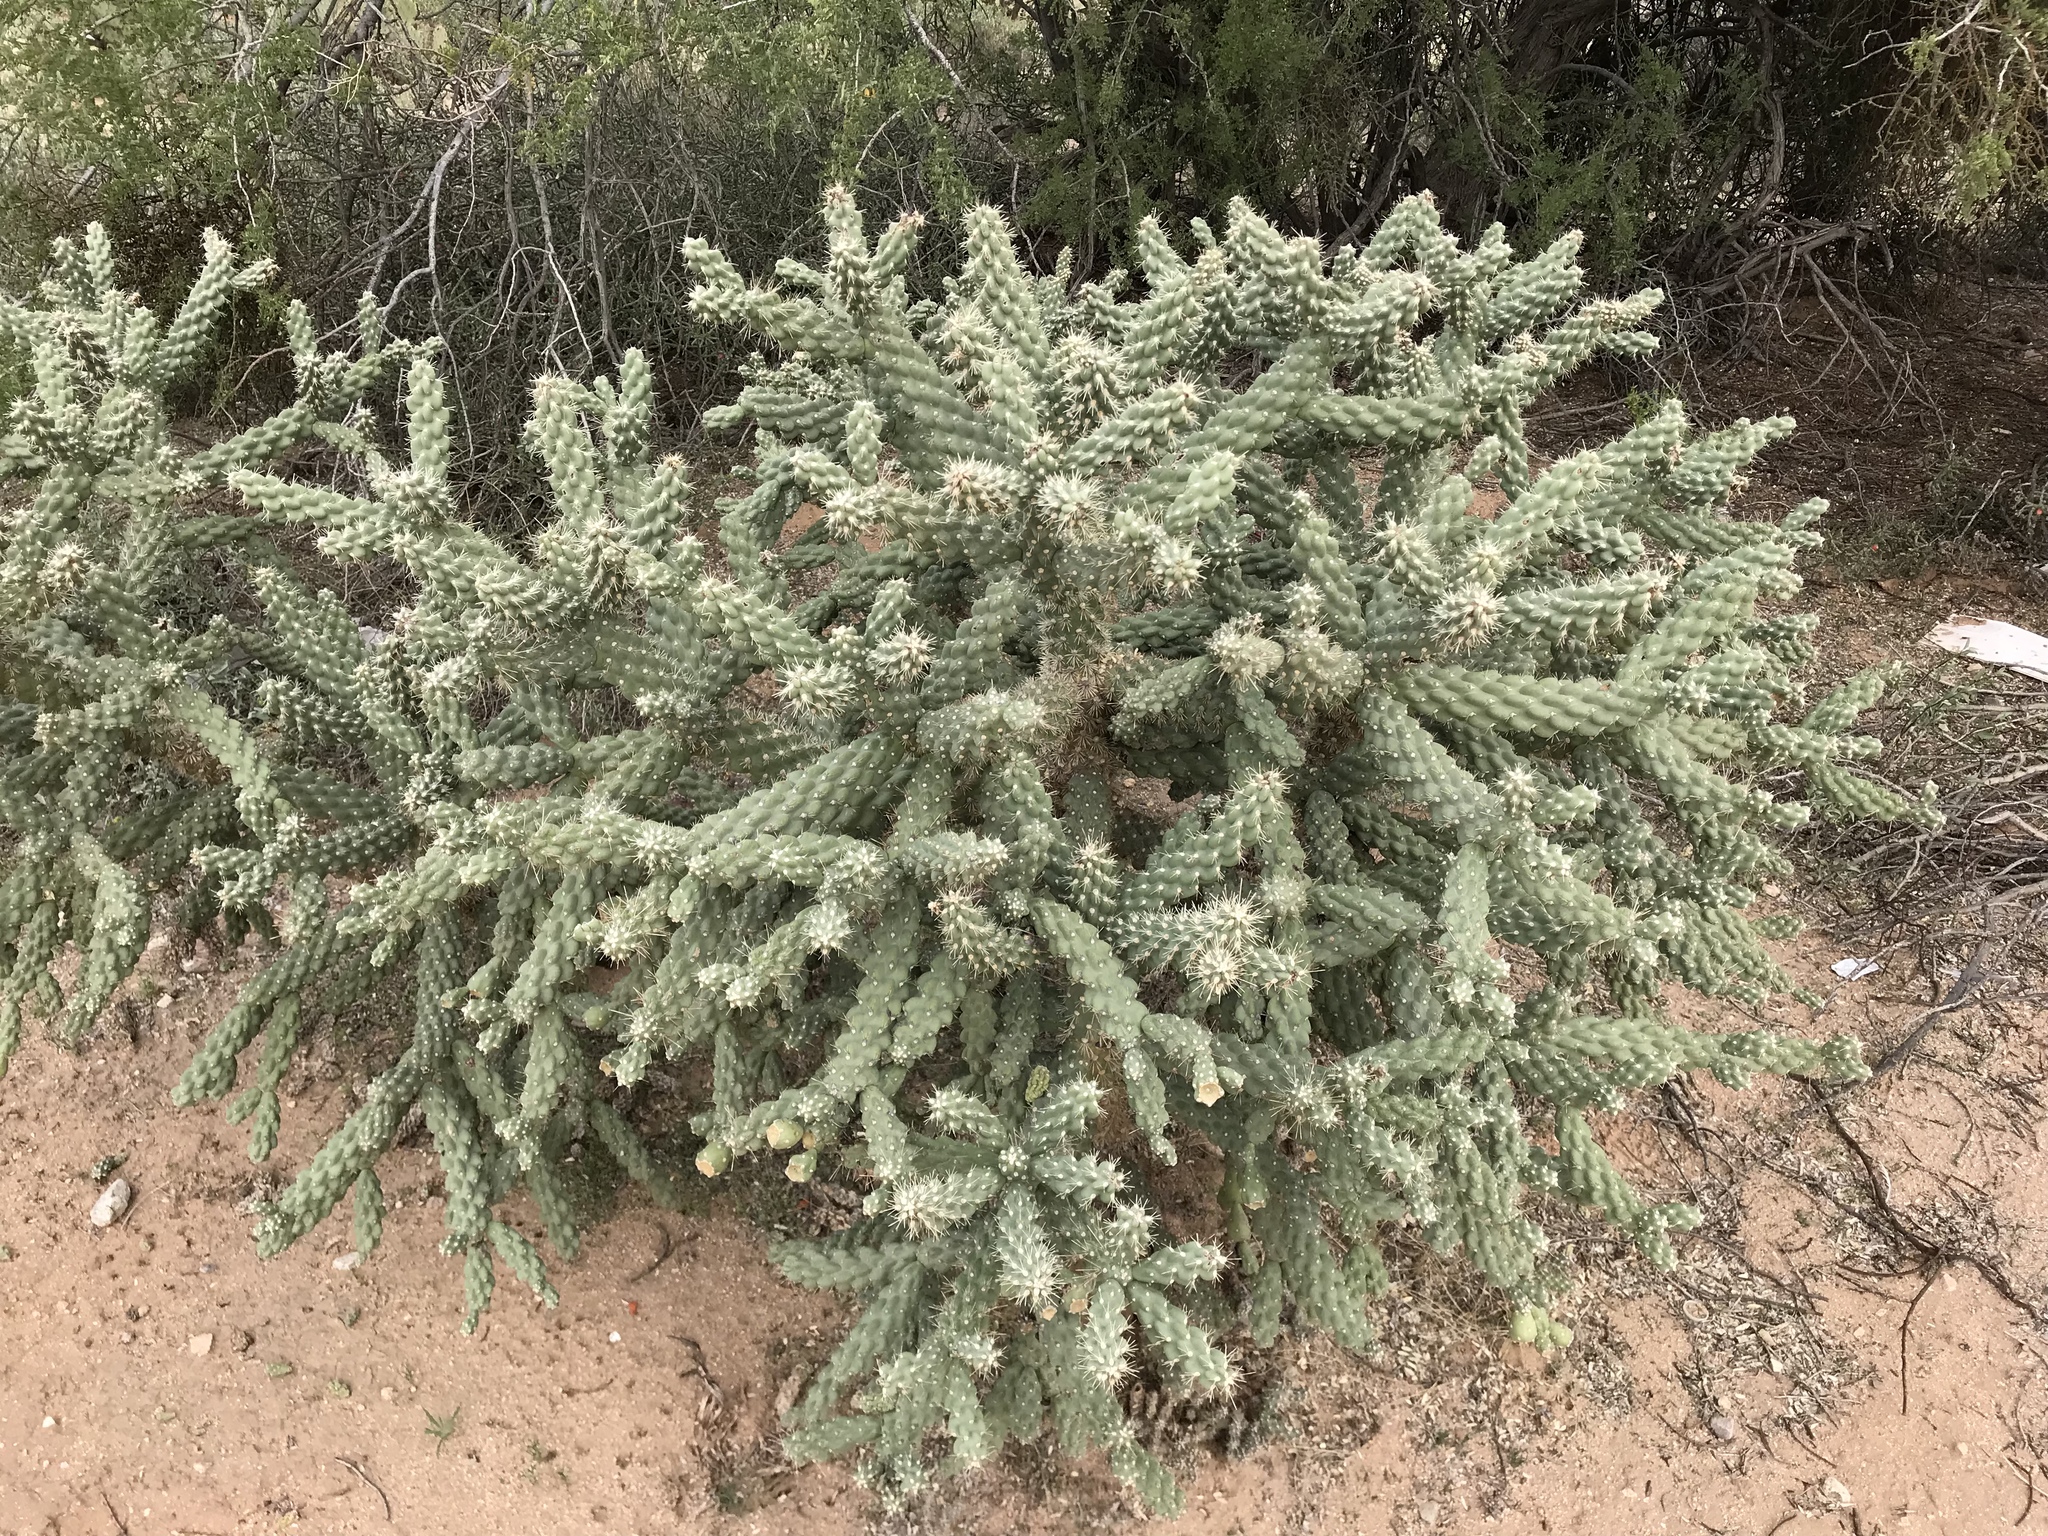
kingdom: Plantae
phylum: Tracheophyta
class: Magnoliopsida
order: Caryophyllales
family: Cactaceae
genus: Cylindropuntia
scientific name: Cylindropuntia fulgida
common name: Jumping cholla
